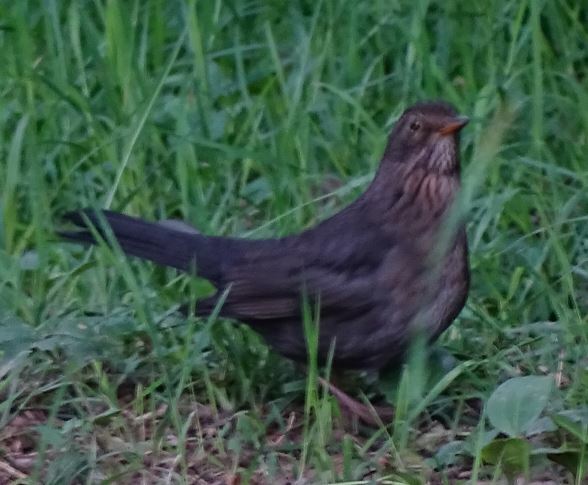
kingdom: Animalia
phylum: Chordata
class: Aves
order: Passeriformes
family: Turdidae
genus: Turdus
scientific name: Turdus merula
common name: Common blackbird
